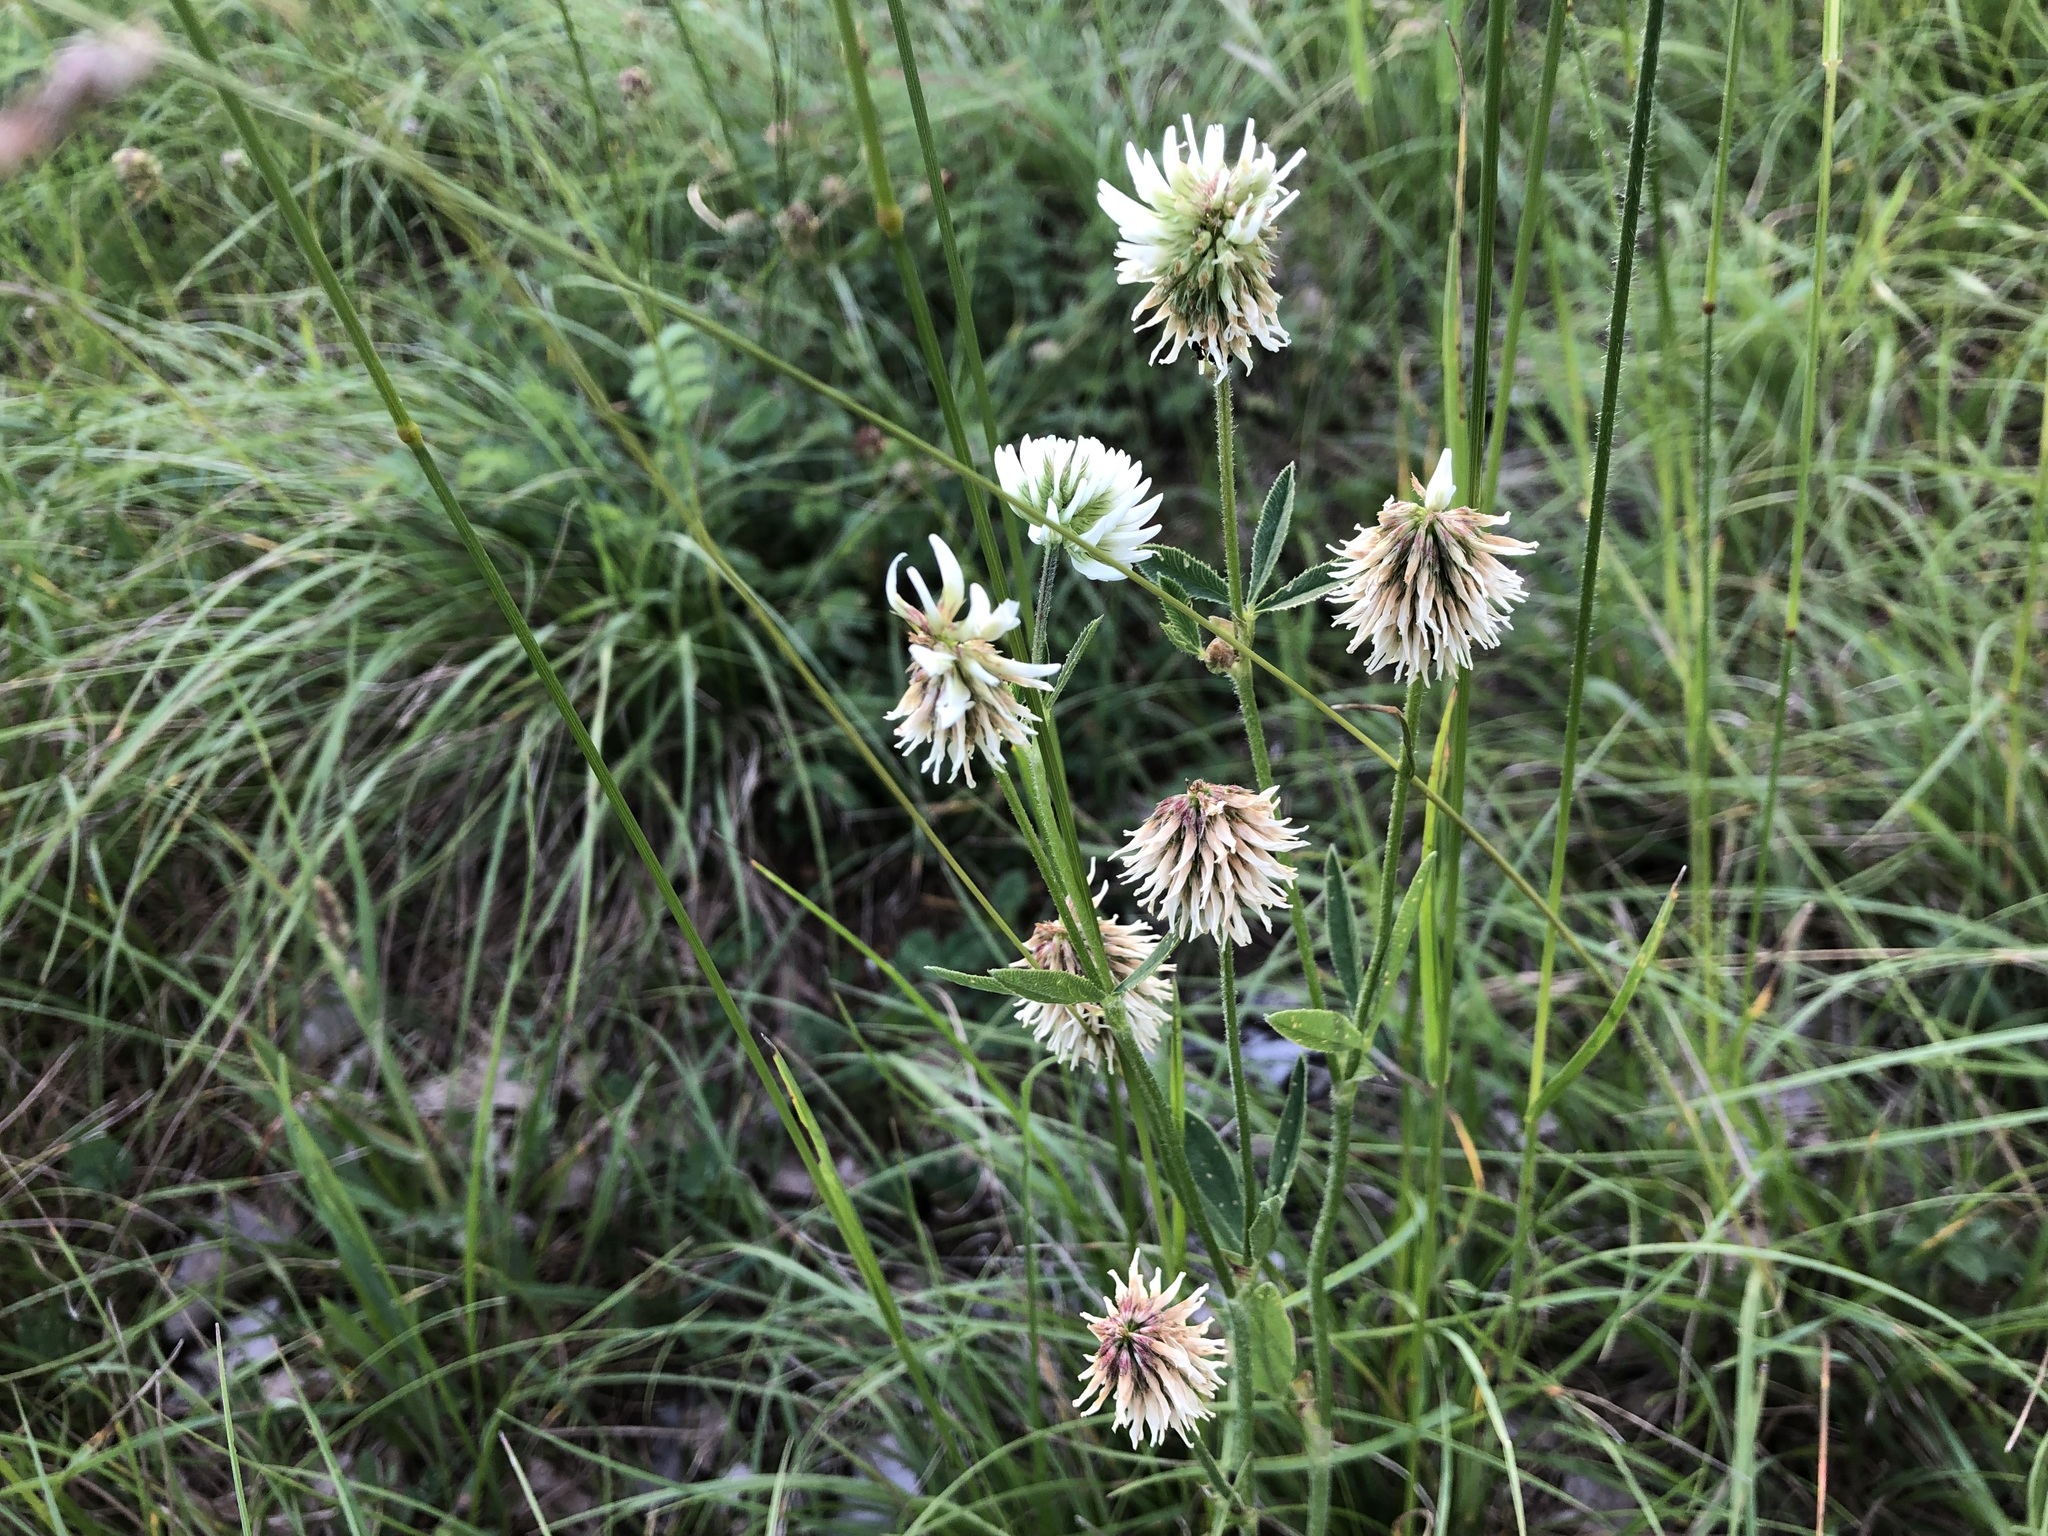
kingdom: Plantae
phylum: Tracheophyta
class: Magnoliopsida
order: Fabales
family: Fabaceae
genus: Trifolium
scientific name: Trifolium montanum
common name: Mountain clover
